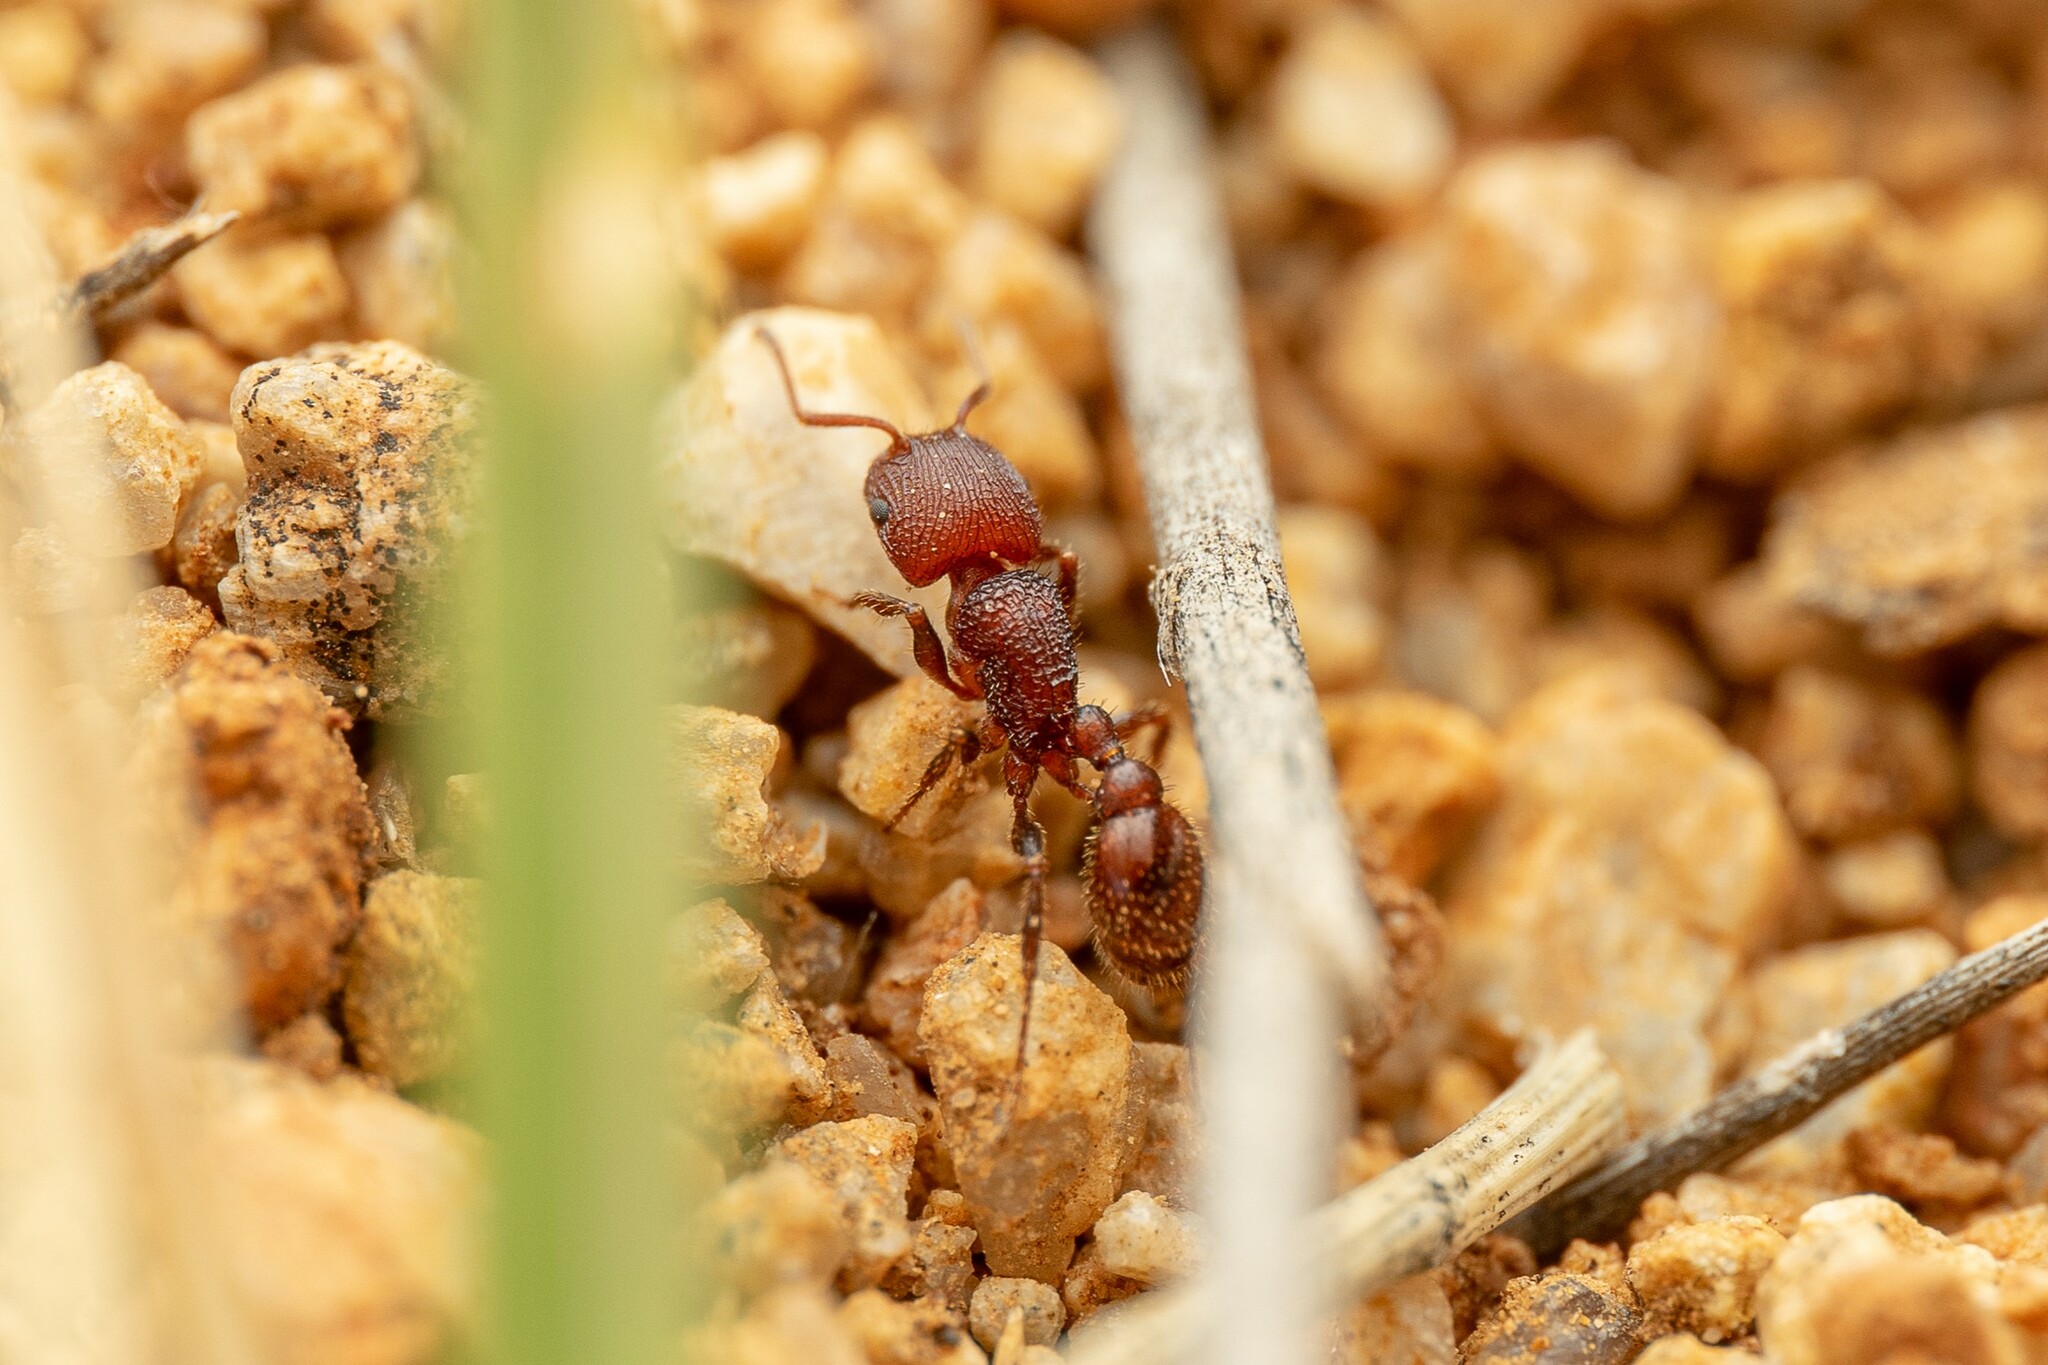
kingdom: Animalia
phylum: Arthropoda
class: Insecta
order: Hymenoptera
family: Formicidae
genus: Pogonomyrmex
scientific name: Pogonomyrmex pima
